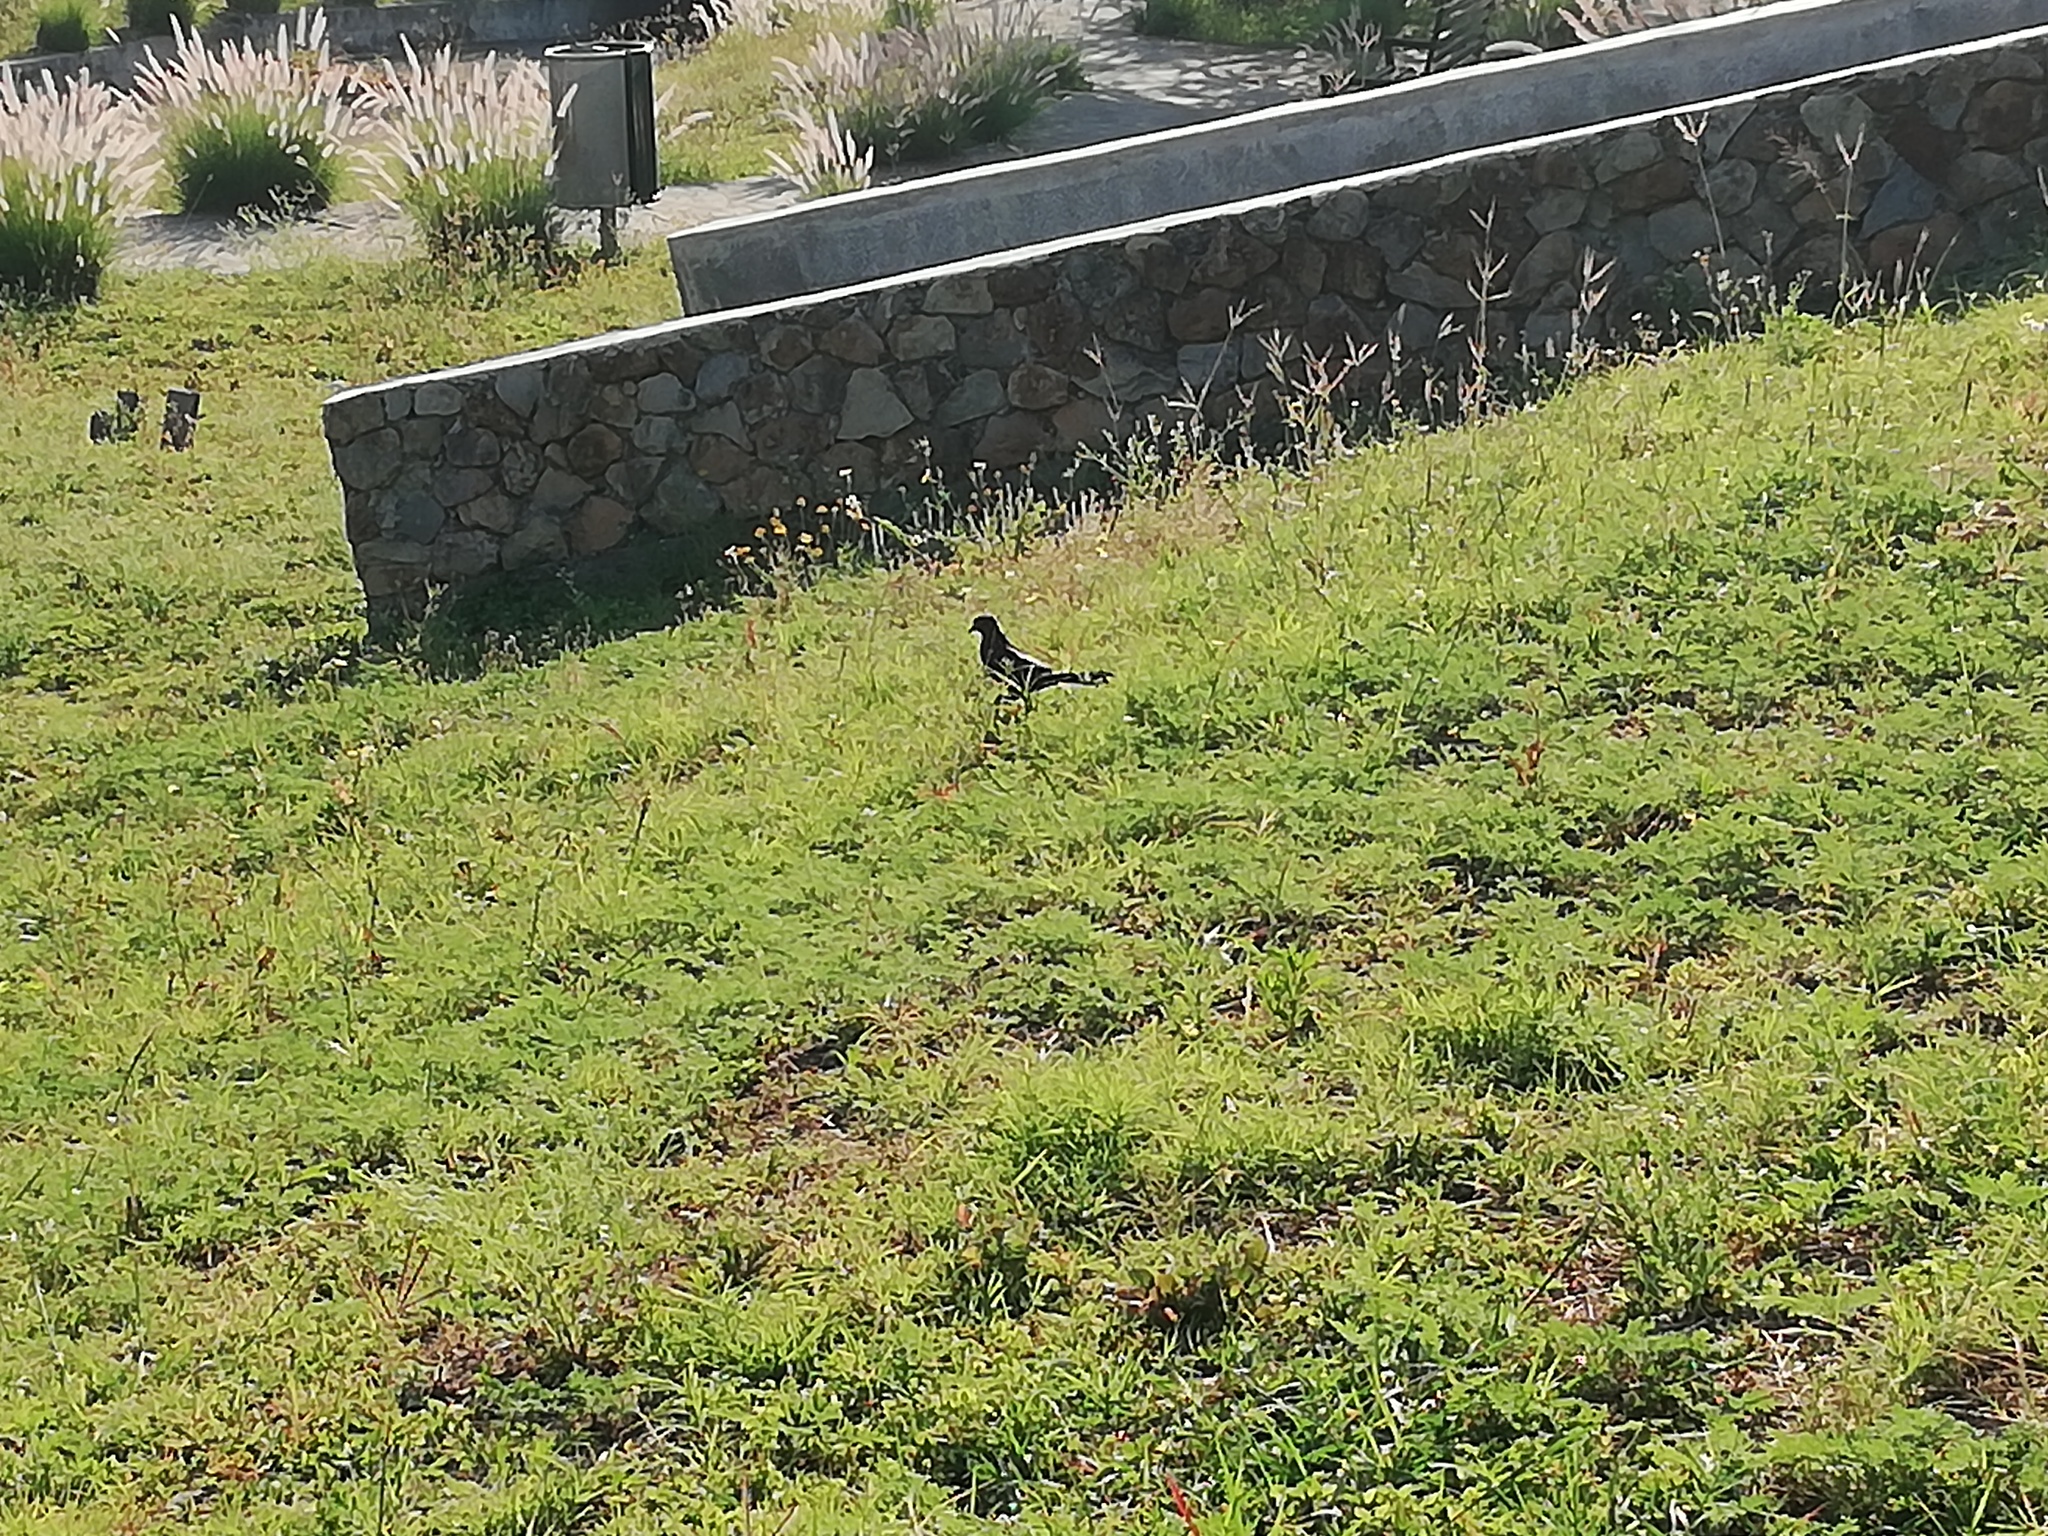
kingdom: Animalia
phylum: Chordata
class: Aves
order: Passeriformes
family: Icteridae
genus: Quiscalus
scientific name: Quiscalus mexicanus
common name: Great-tailed grackle
